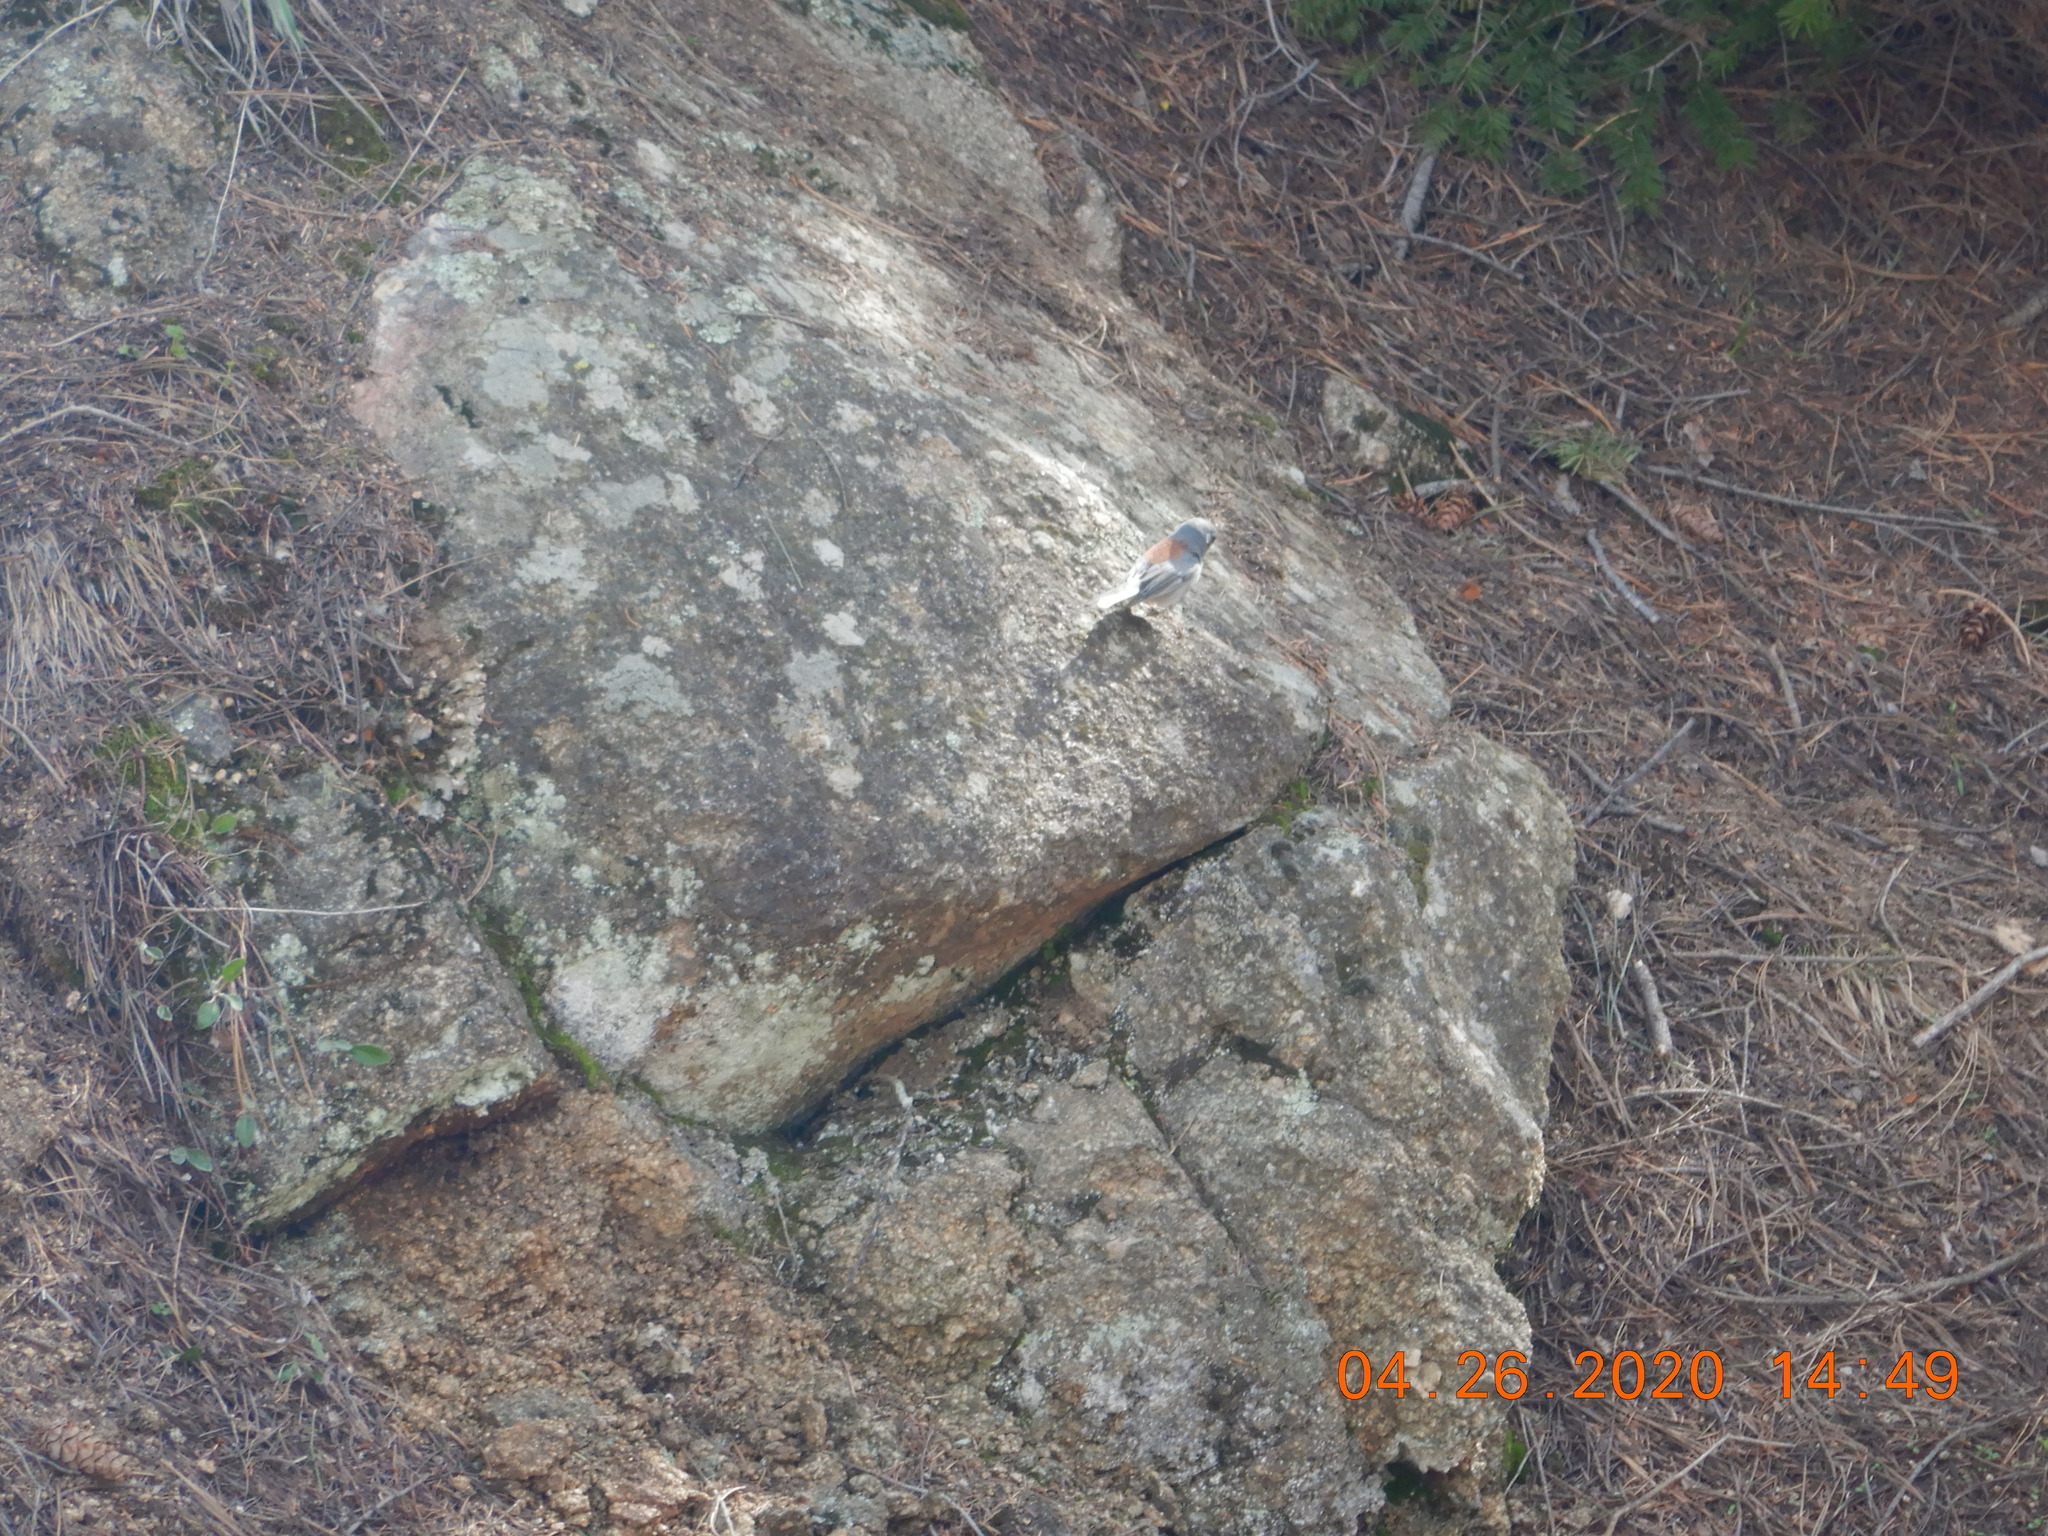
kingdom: Animalia
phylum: Chordata
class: Aves
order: Passeriformes
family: Passerellidae
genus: Junco
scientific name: Junco hyemalis
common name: Dark-eyed junco
